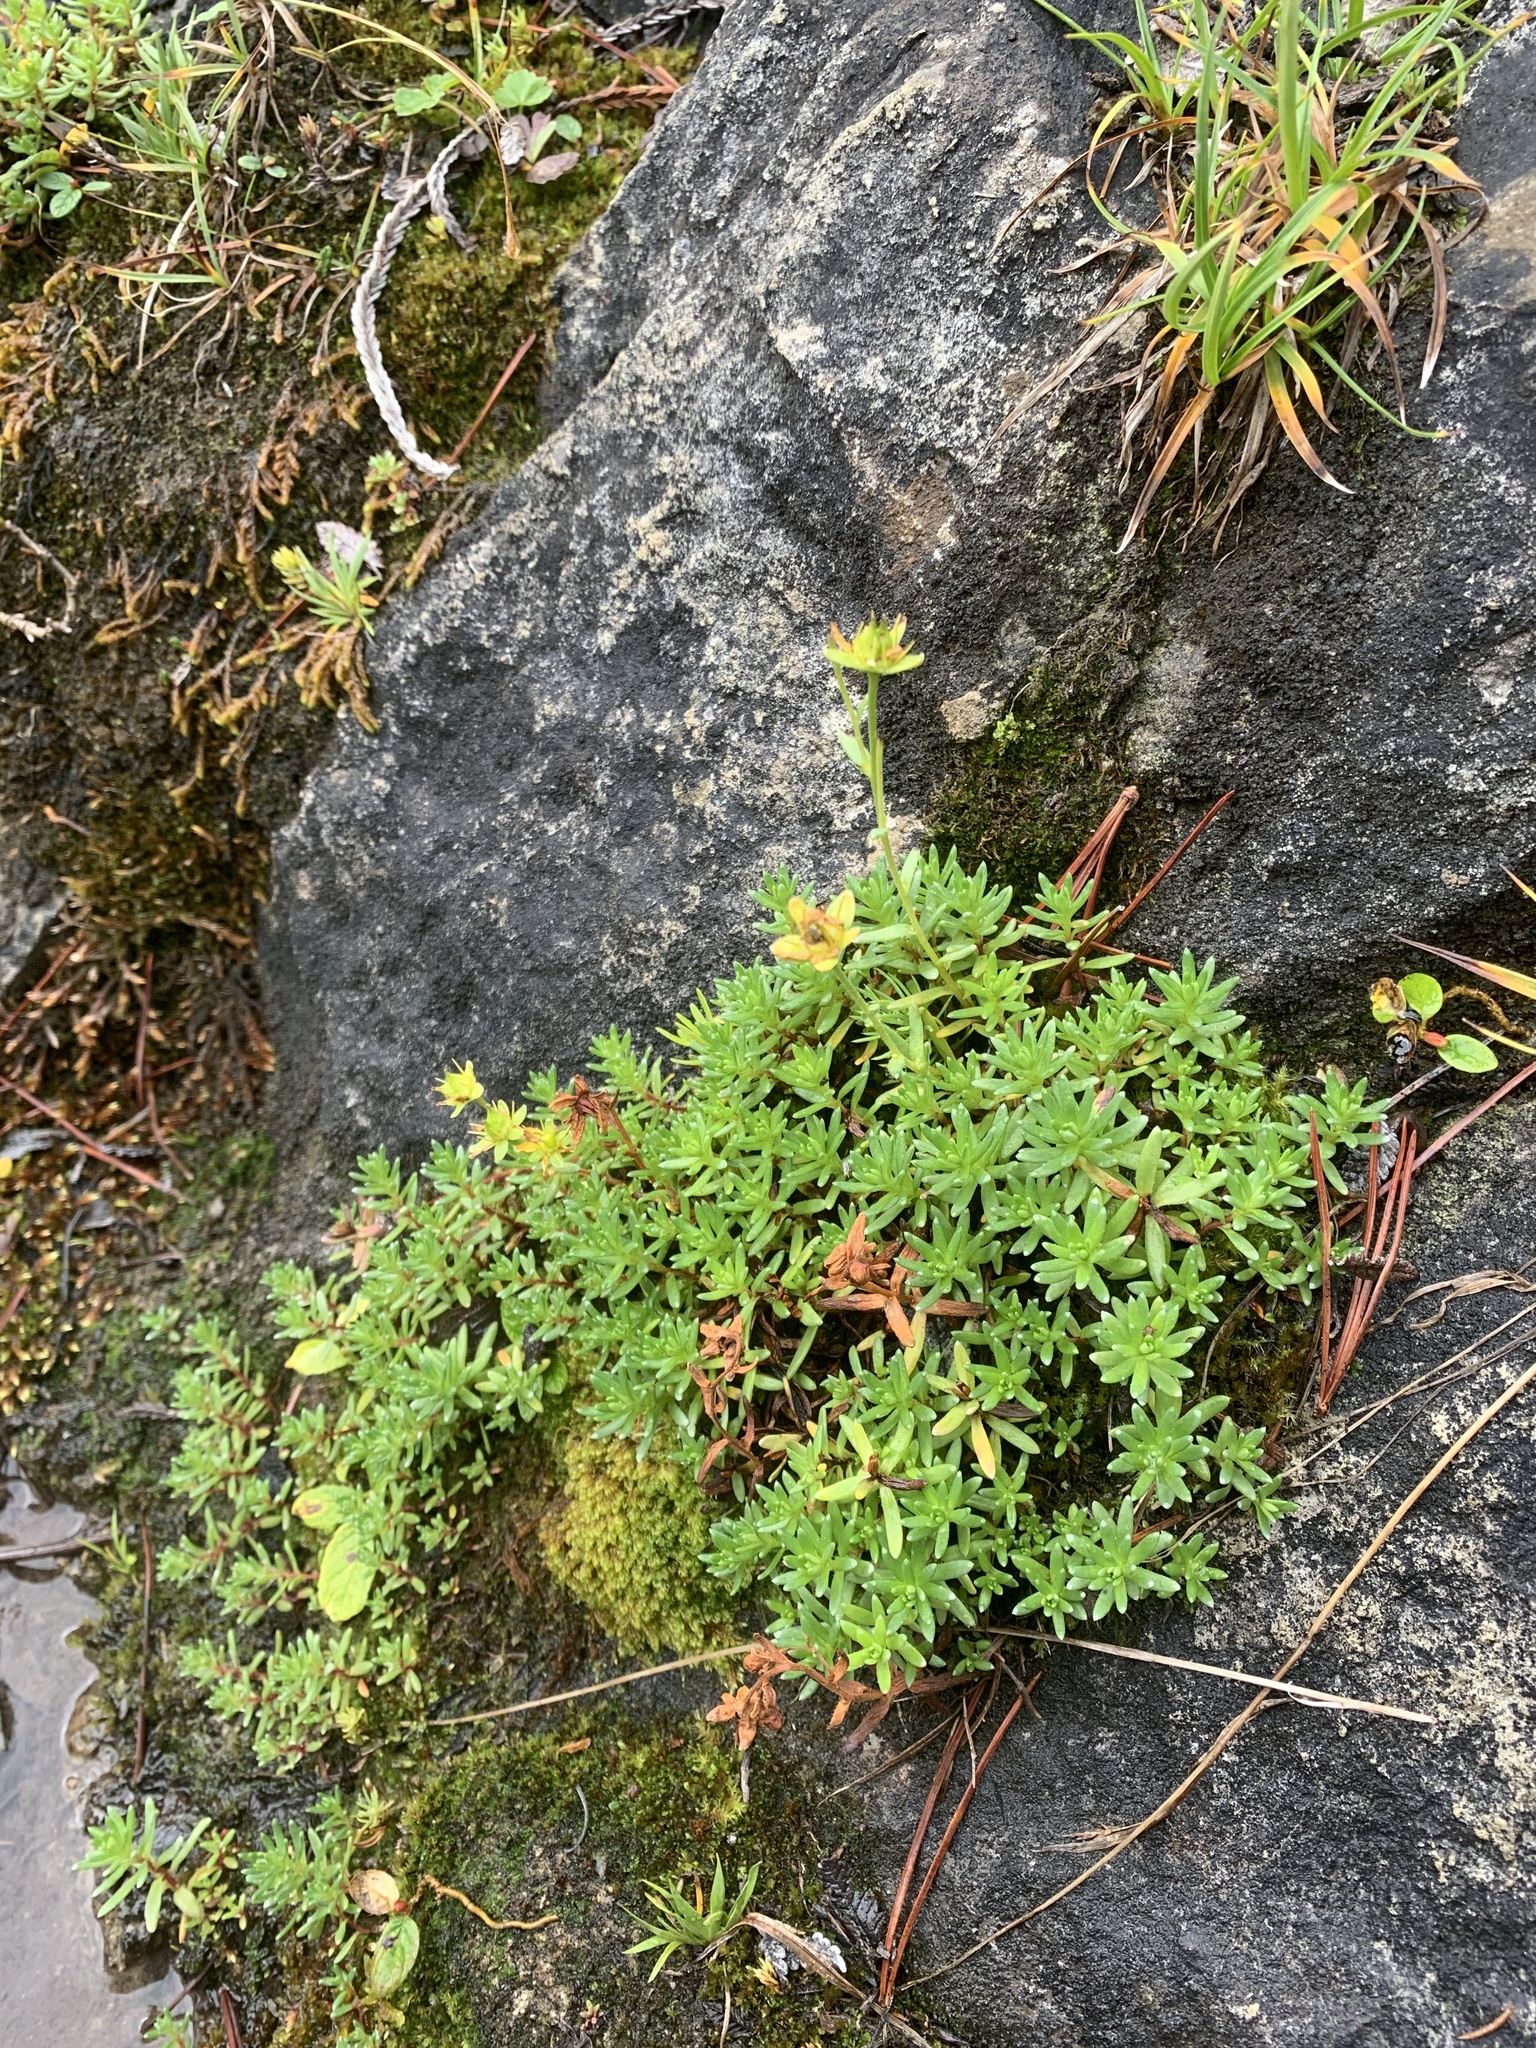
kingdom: Plantae
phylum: Tracheophyta
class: Magnoliopsida
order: Saxifragales
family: Saxifragaceae
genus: Saxifraga
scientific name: Saxifraga aizoides
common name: Yellow mountain saxifrage
